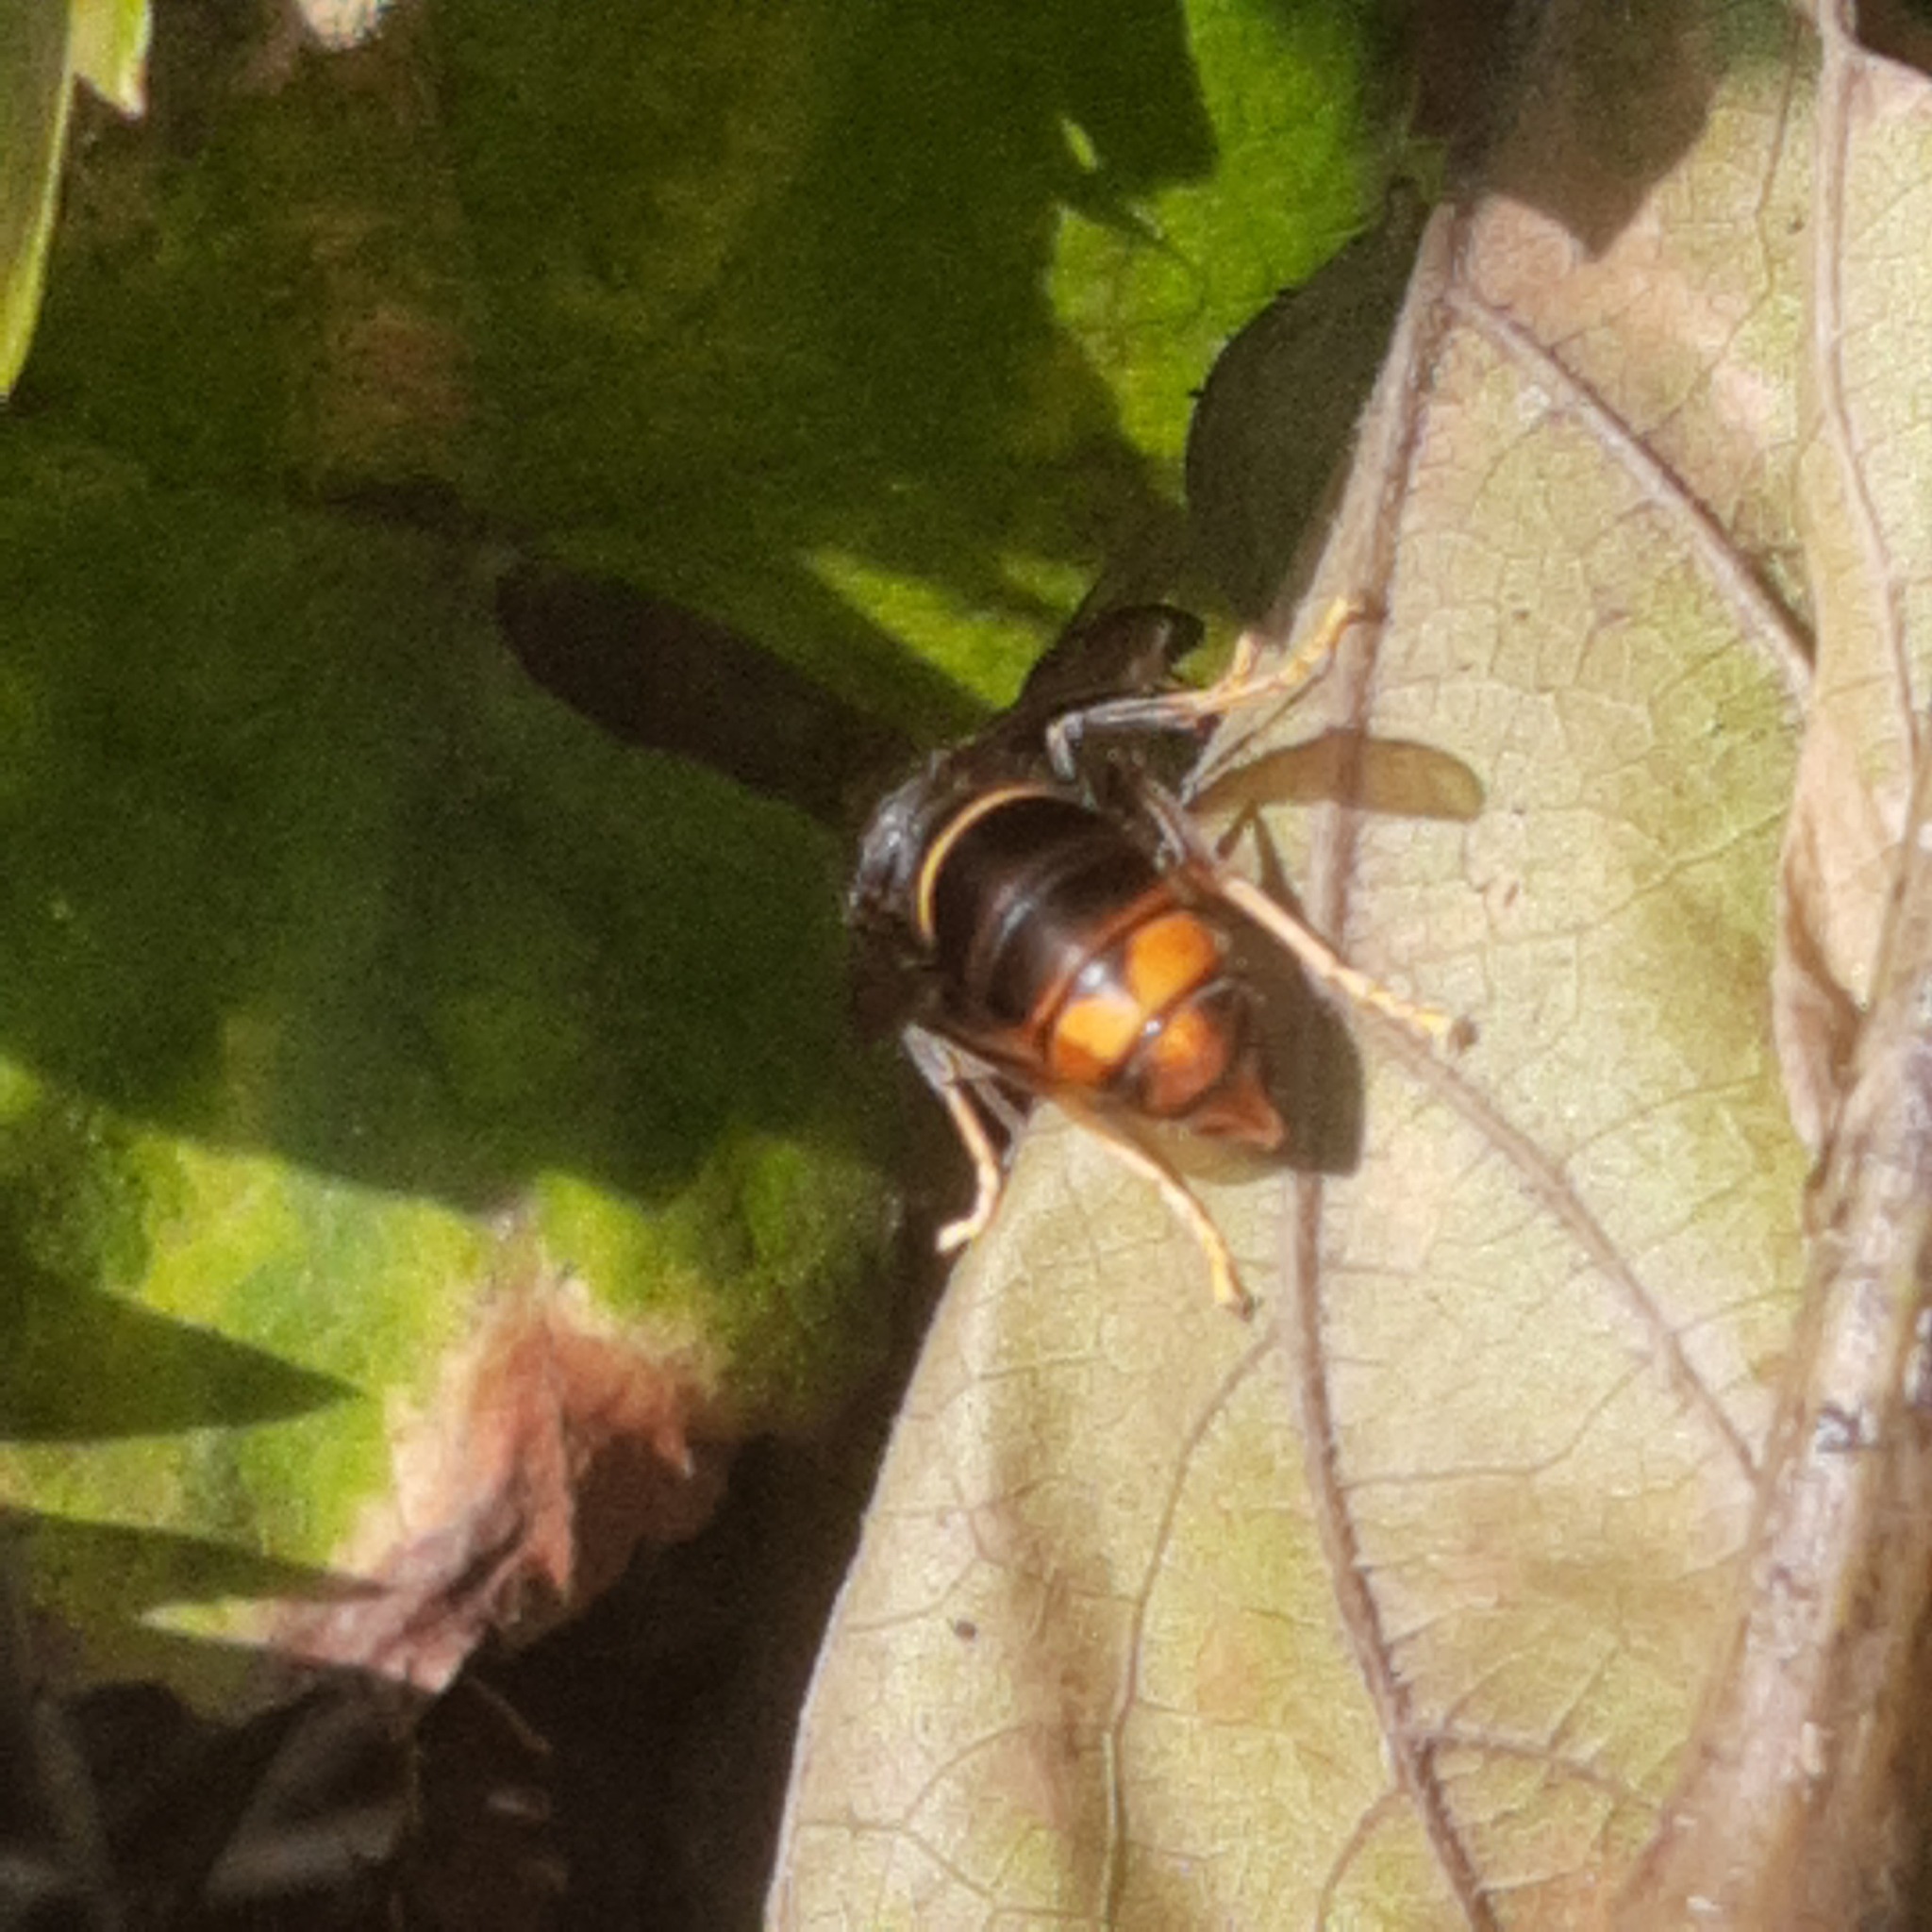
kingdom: Animalia
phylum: Arthropoda
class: Insecta
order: Hymenoptera
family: Vespidae
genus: Vespa
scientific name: Vespa velutina
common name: Asian hornet
